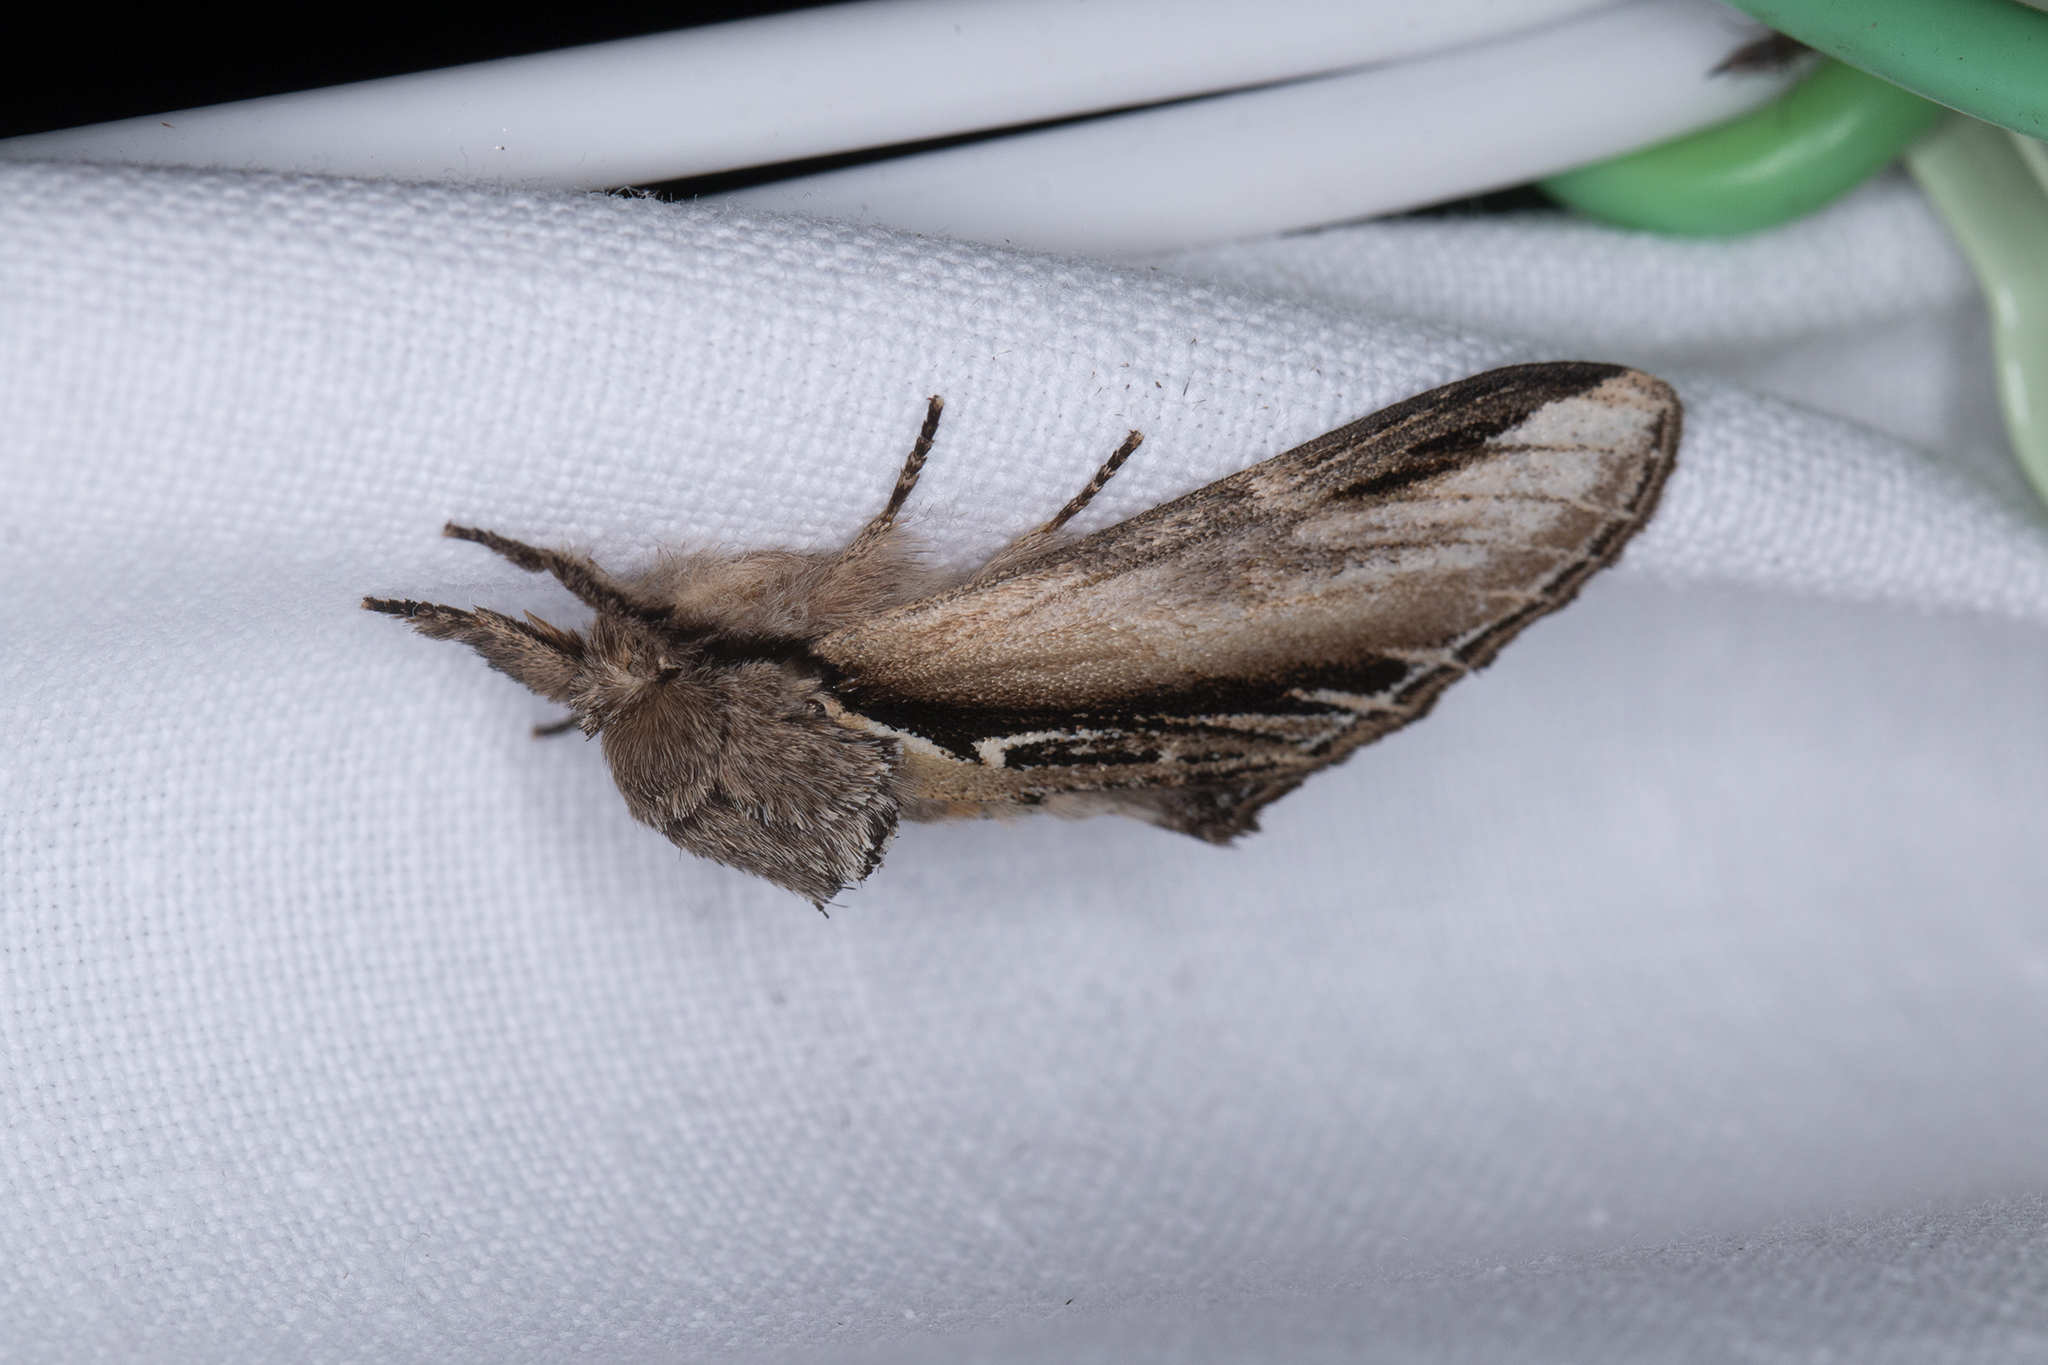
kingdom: Animalia
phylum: Arthropoda
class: Insecta
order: Lepidoptera
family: Notodontidae
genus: Pheosia
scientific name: Pheosia tremula
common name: Swallow prominent
